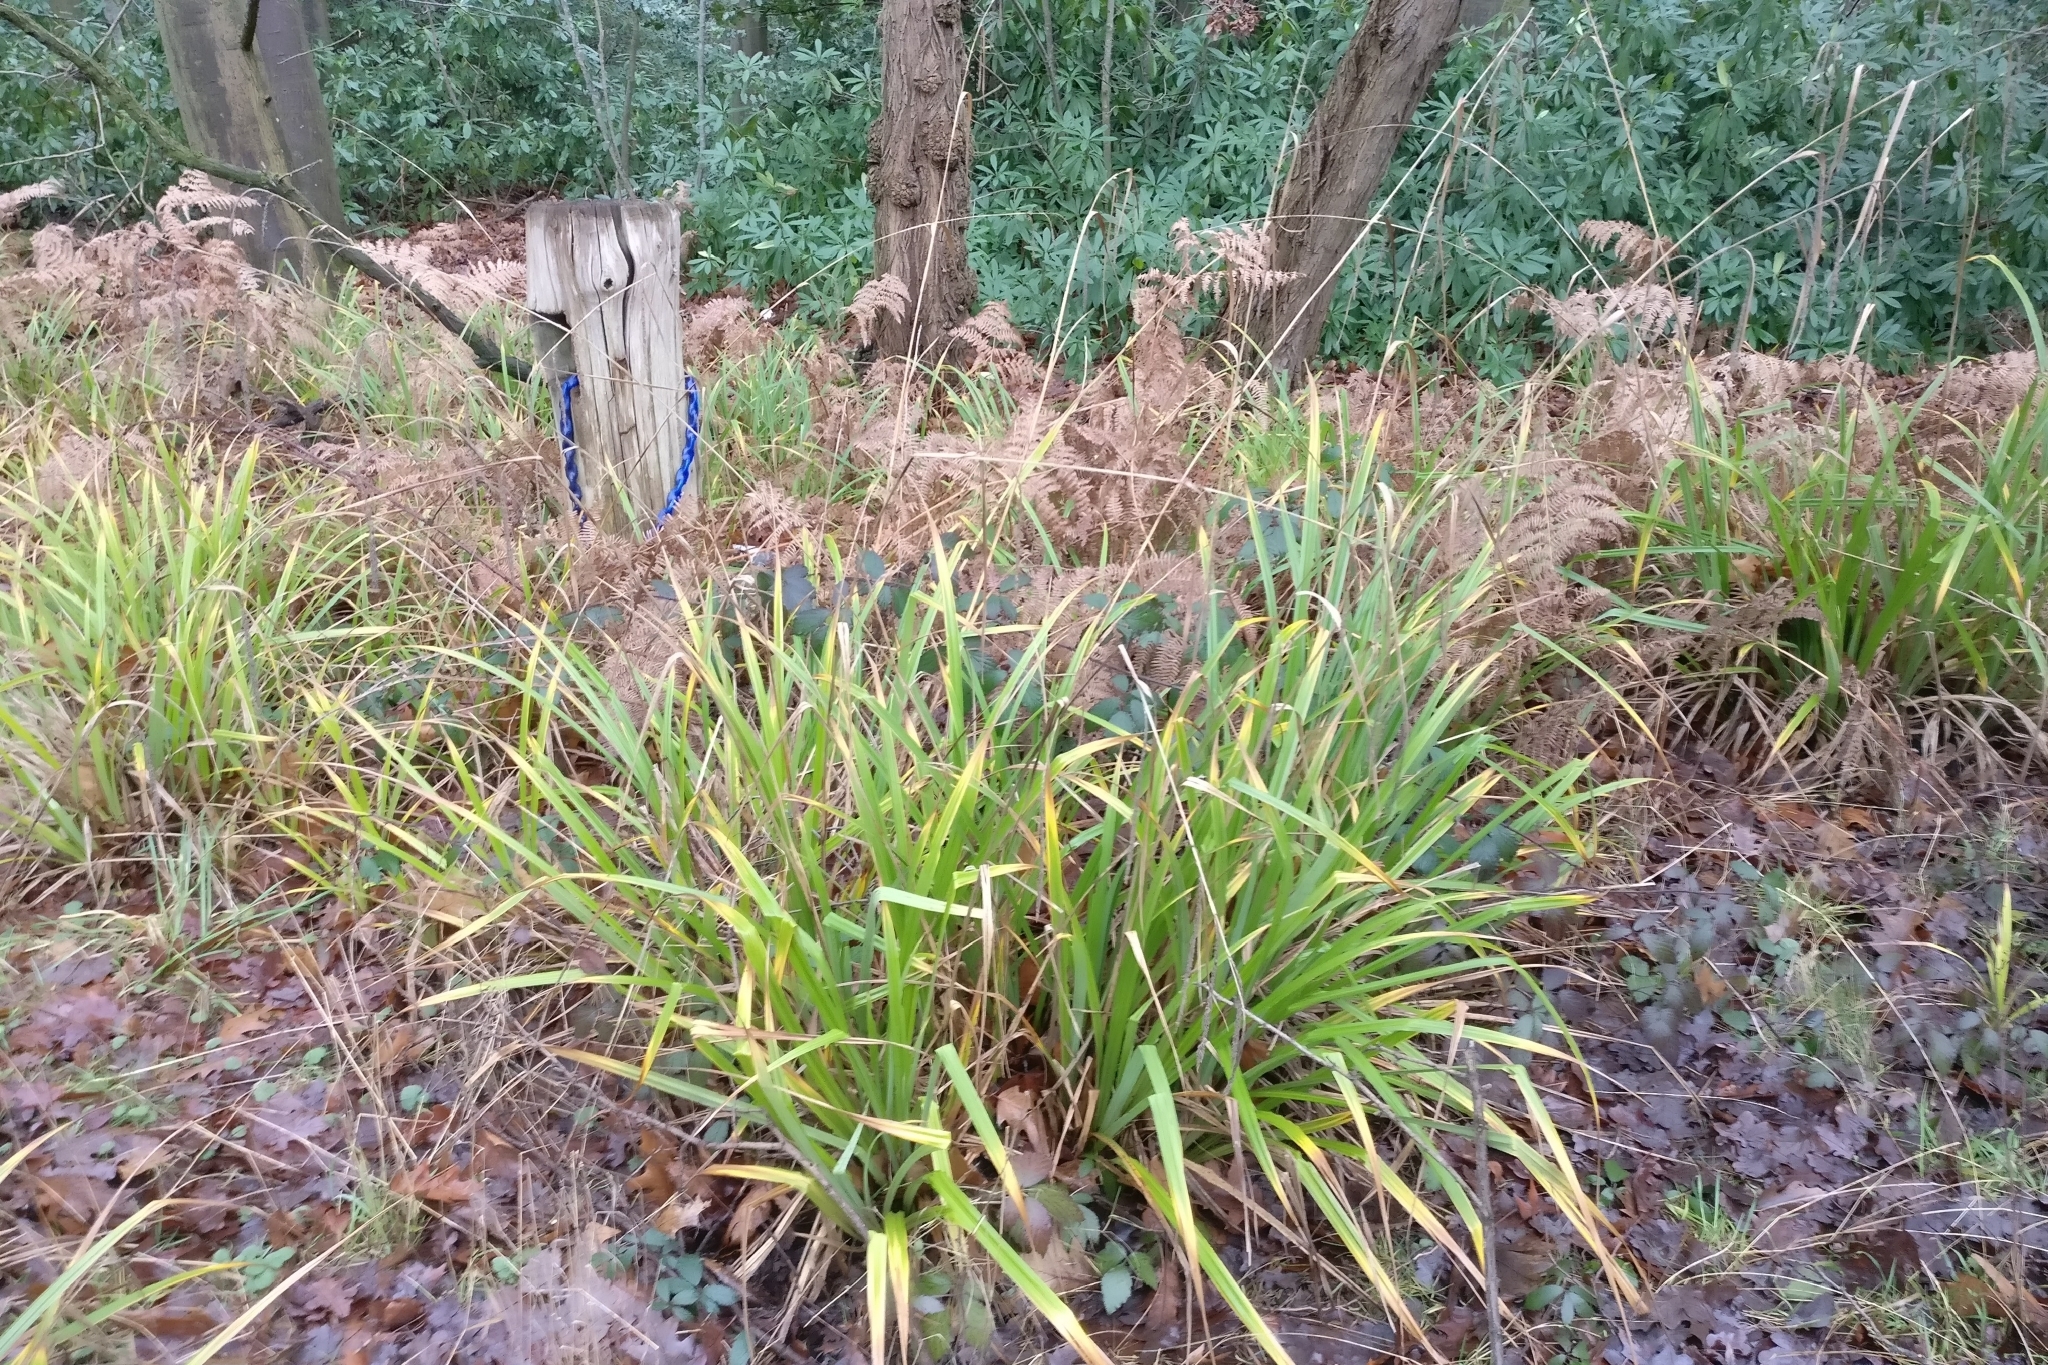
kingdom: Plantae
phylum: Tracheophyta
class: Liliopsida
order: Poales
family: Cyperaceae
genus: Carex
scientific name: Carex pendula
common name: Pendulous sedge
